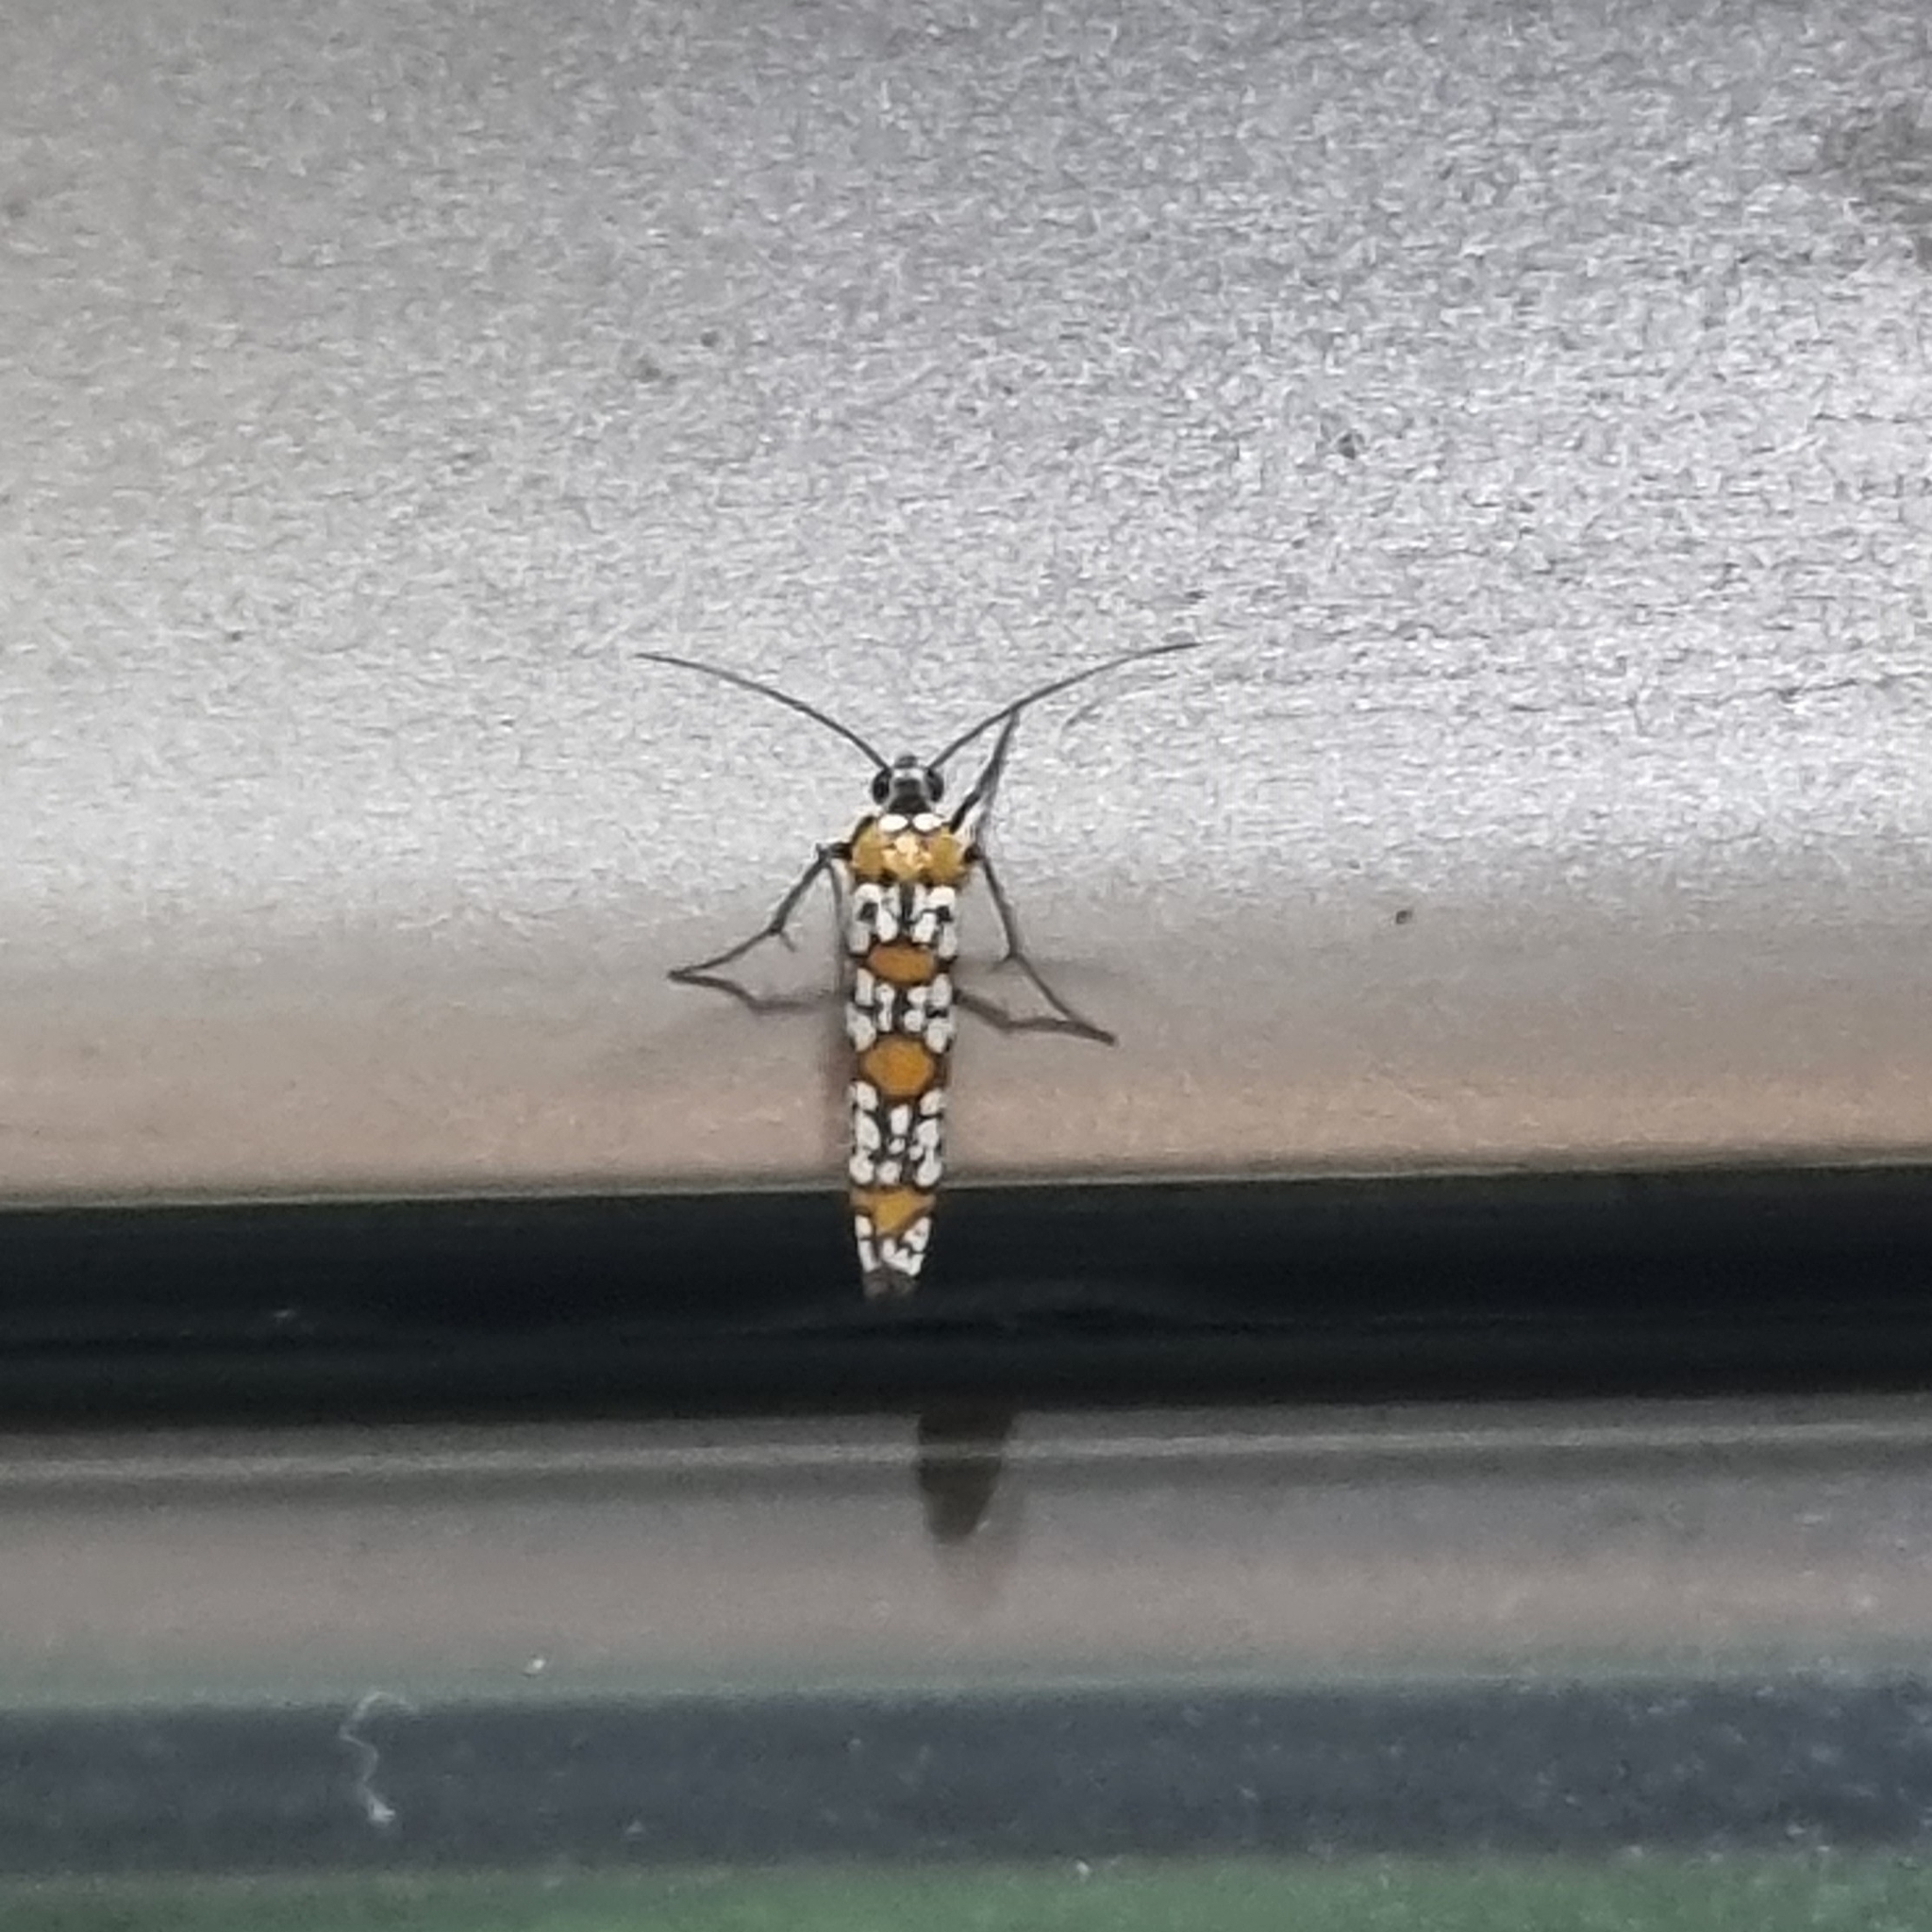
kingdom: Animalia
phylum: Arthropoda
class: Insecta
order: Lepidoptera
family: Attevidae
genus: Atteva
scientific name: Atteva punctella
